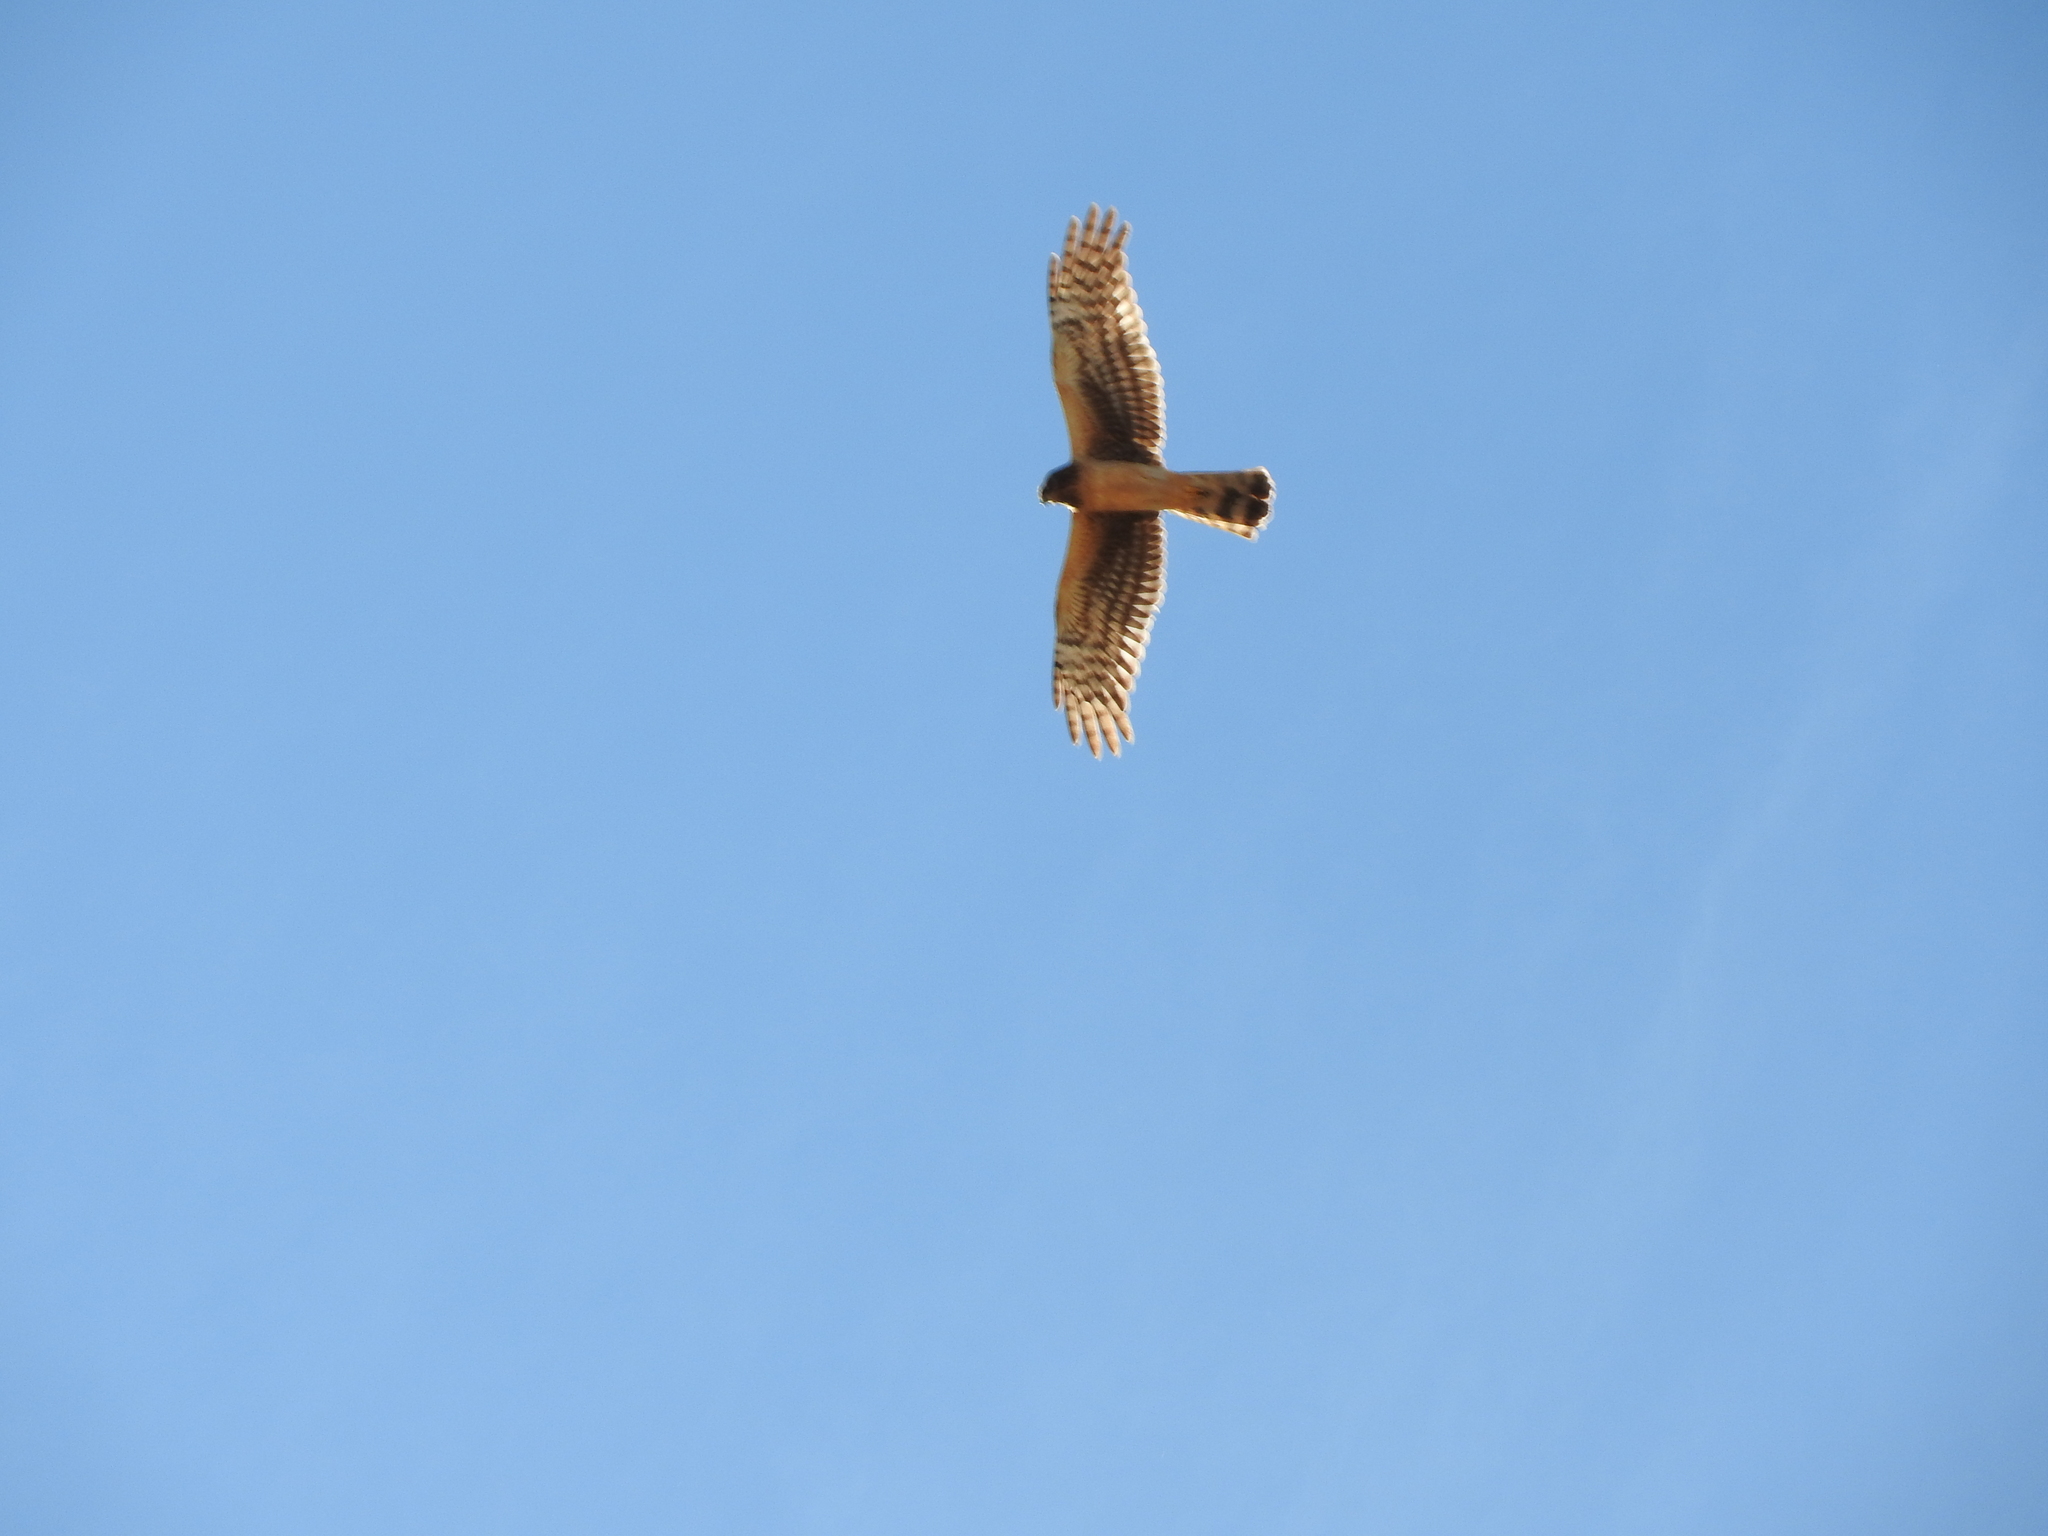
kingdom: Animalia
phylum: Chordata
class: Aves
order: Accipitriformes
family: Accipitridae
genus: Circus
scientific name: Circus cyaneus
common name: Hen harrier
